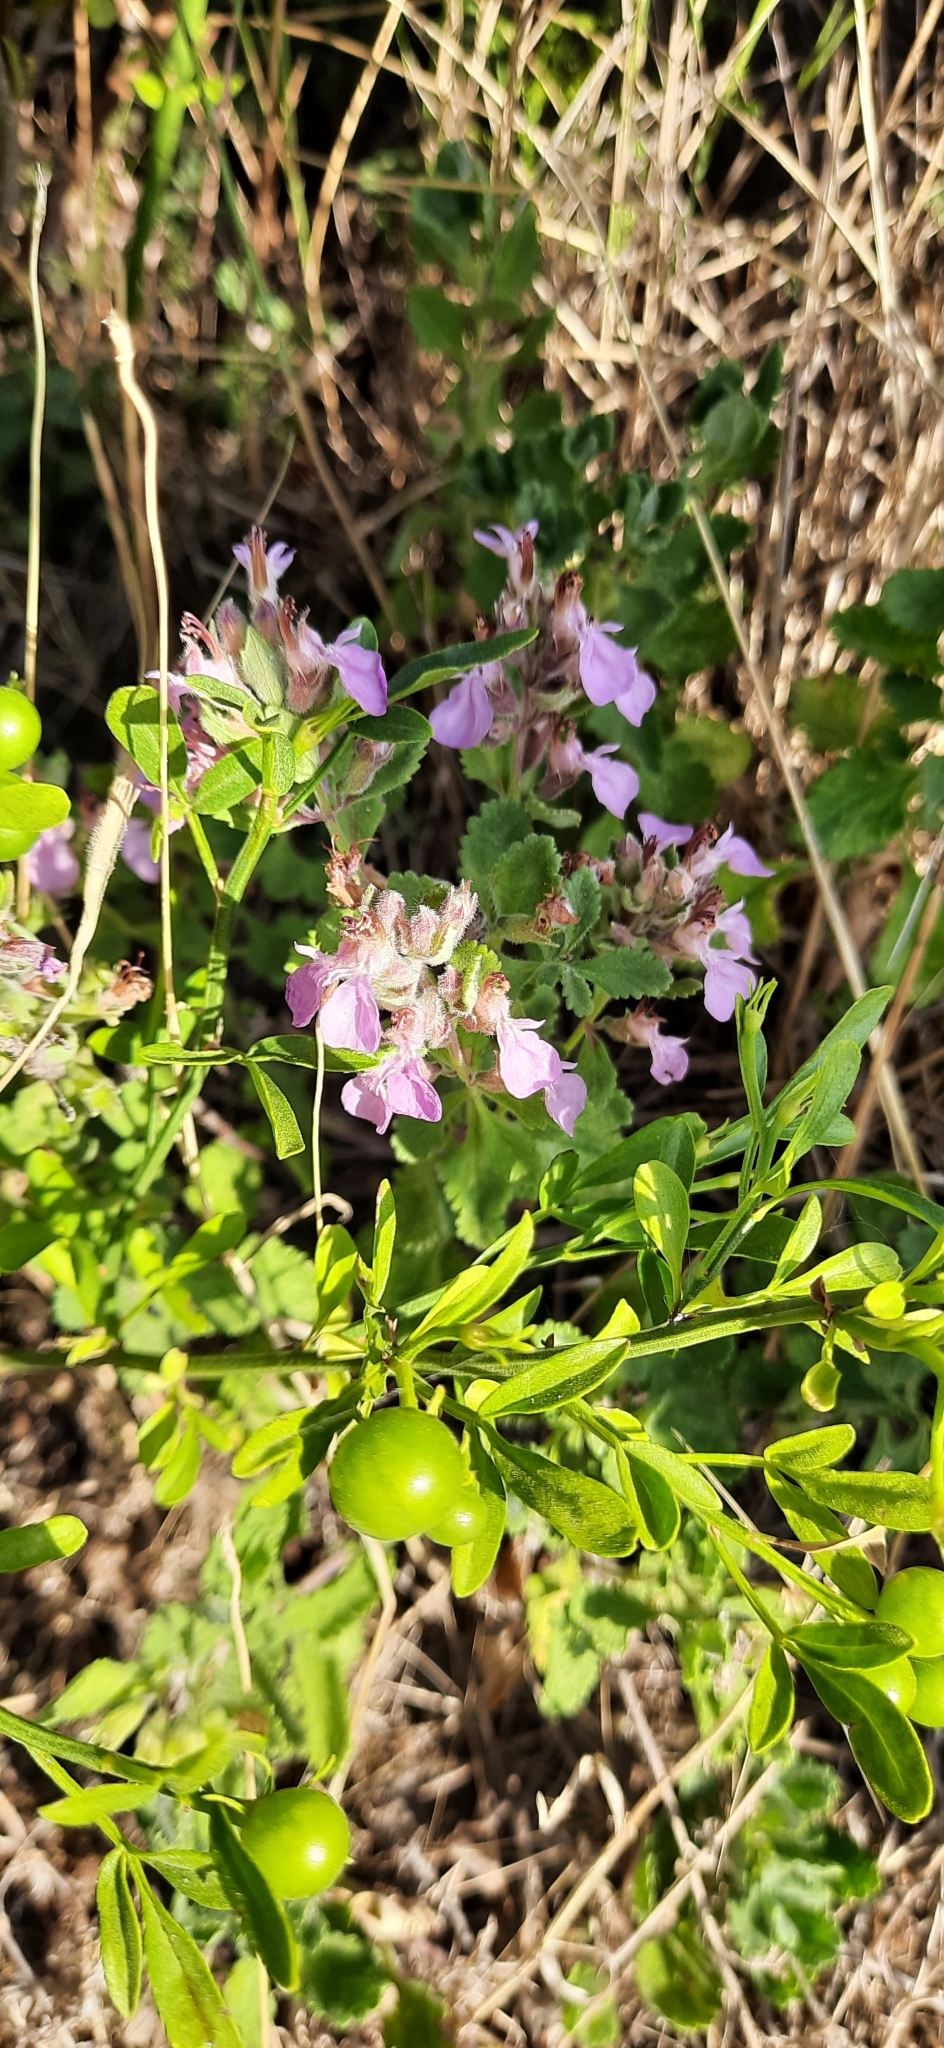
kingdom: Plantae
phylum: Tracheophyta
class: Magnoliopsida
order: Lamiales
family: Lamiaceae
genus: Teucrium
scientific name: Teucrium chamaedrys
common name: Wall germander
